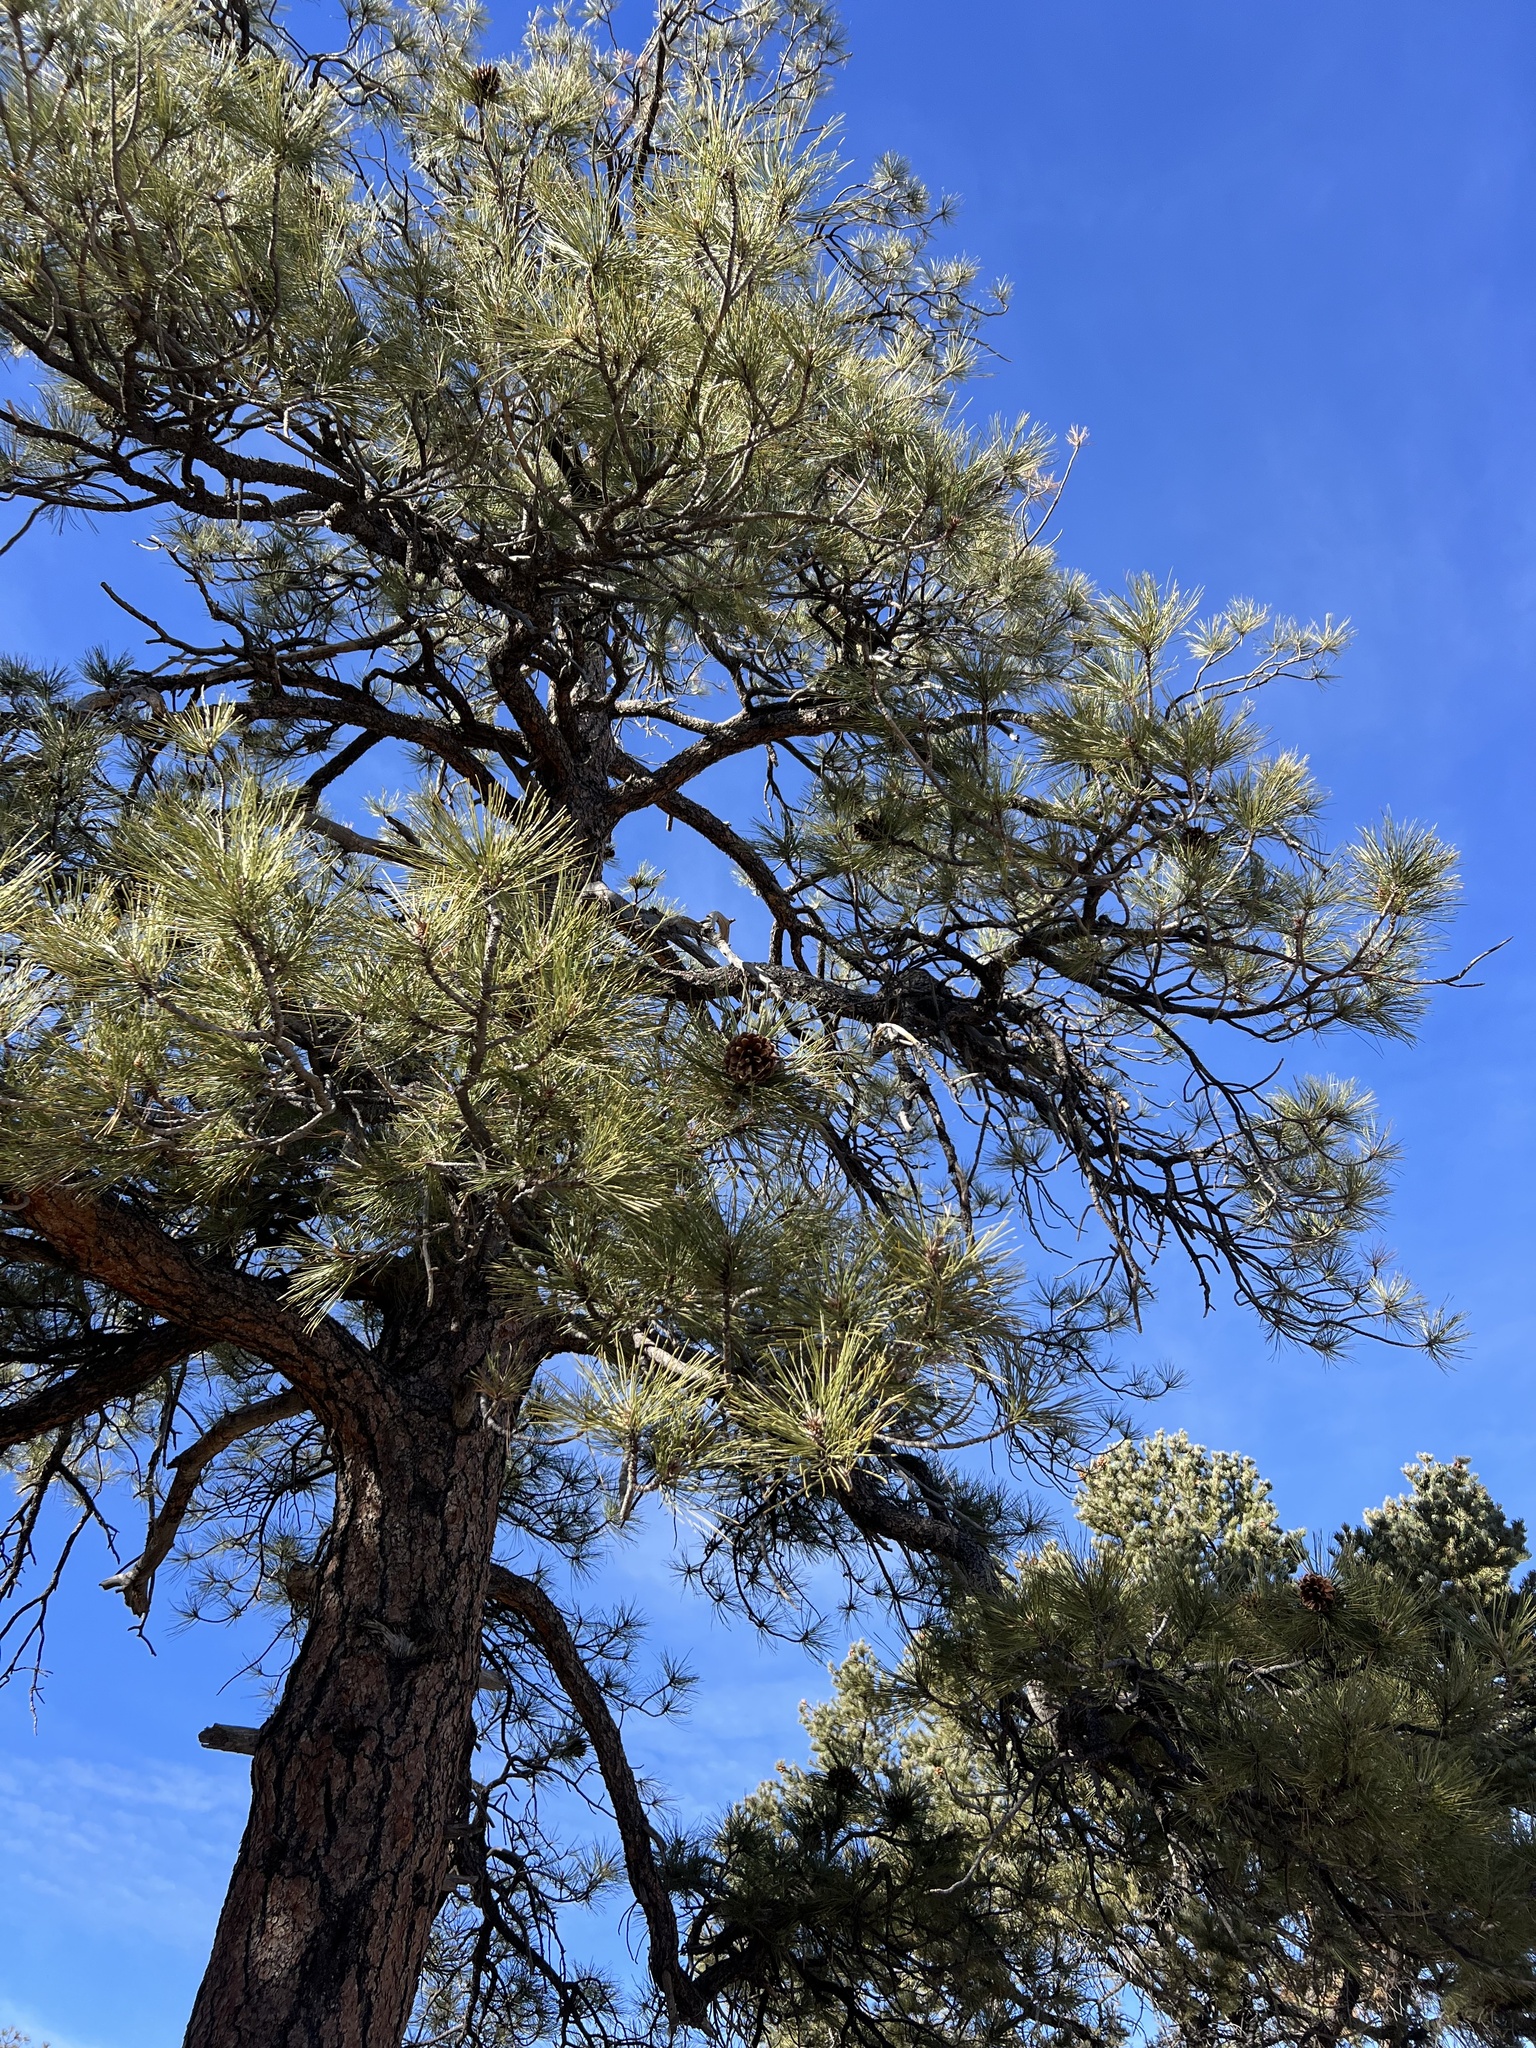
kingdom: Plantae
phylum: Tracheophyta
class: Pinopsida
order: Pinales
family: Pinaceae
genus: Pinus
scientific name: Pinus ponderosa
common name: Western yellow-pine
